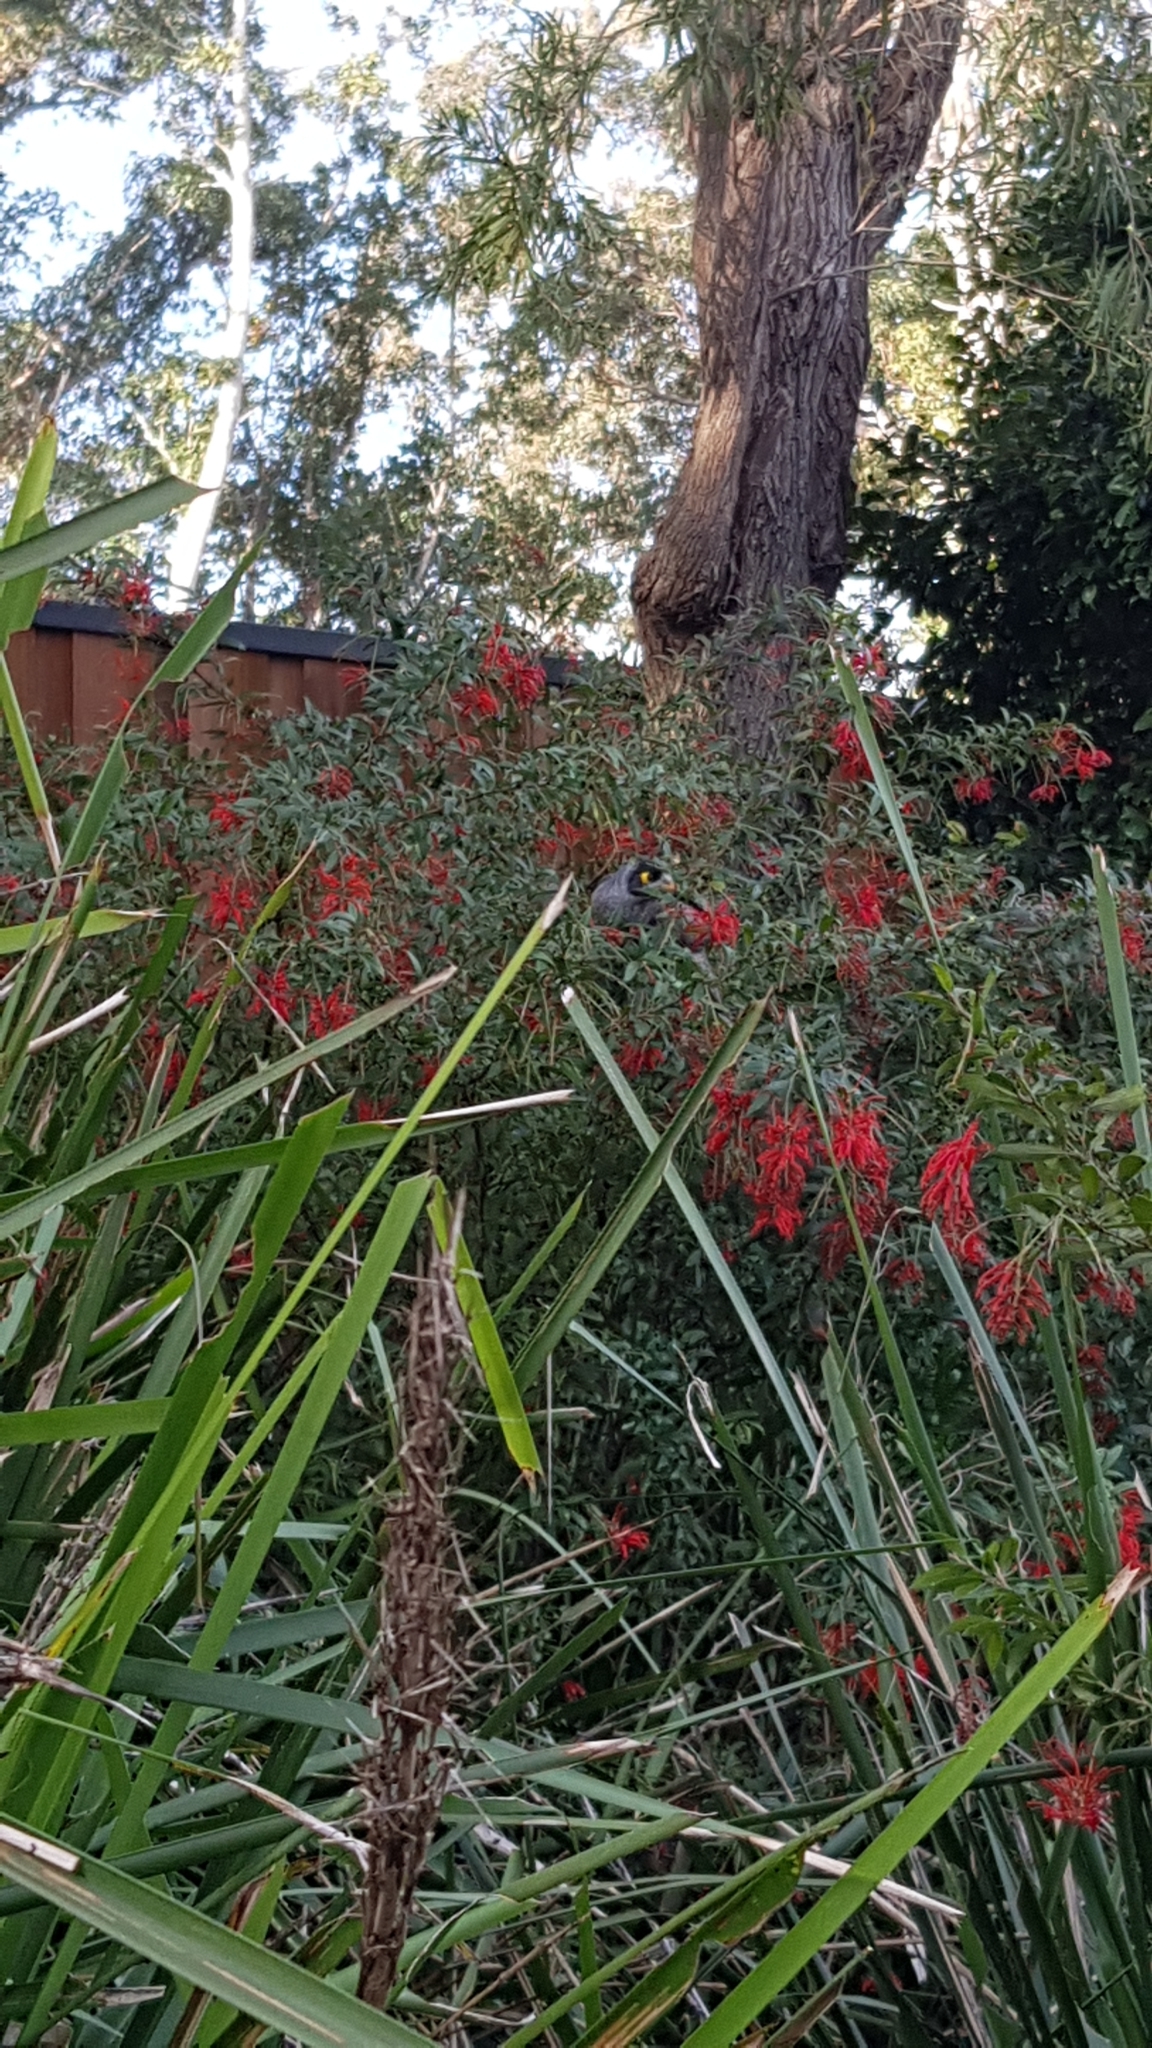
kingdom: Animalia
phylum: Chordata
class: Aves
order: Passeriformes
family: Meliphagidae
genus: Manorina
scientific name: Manorina melanocephala
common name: Noisy miner
